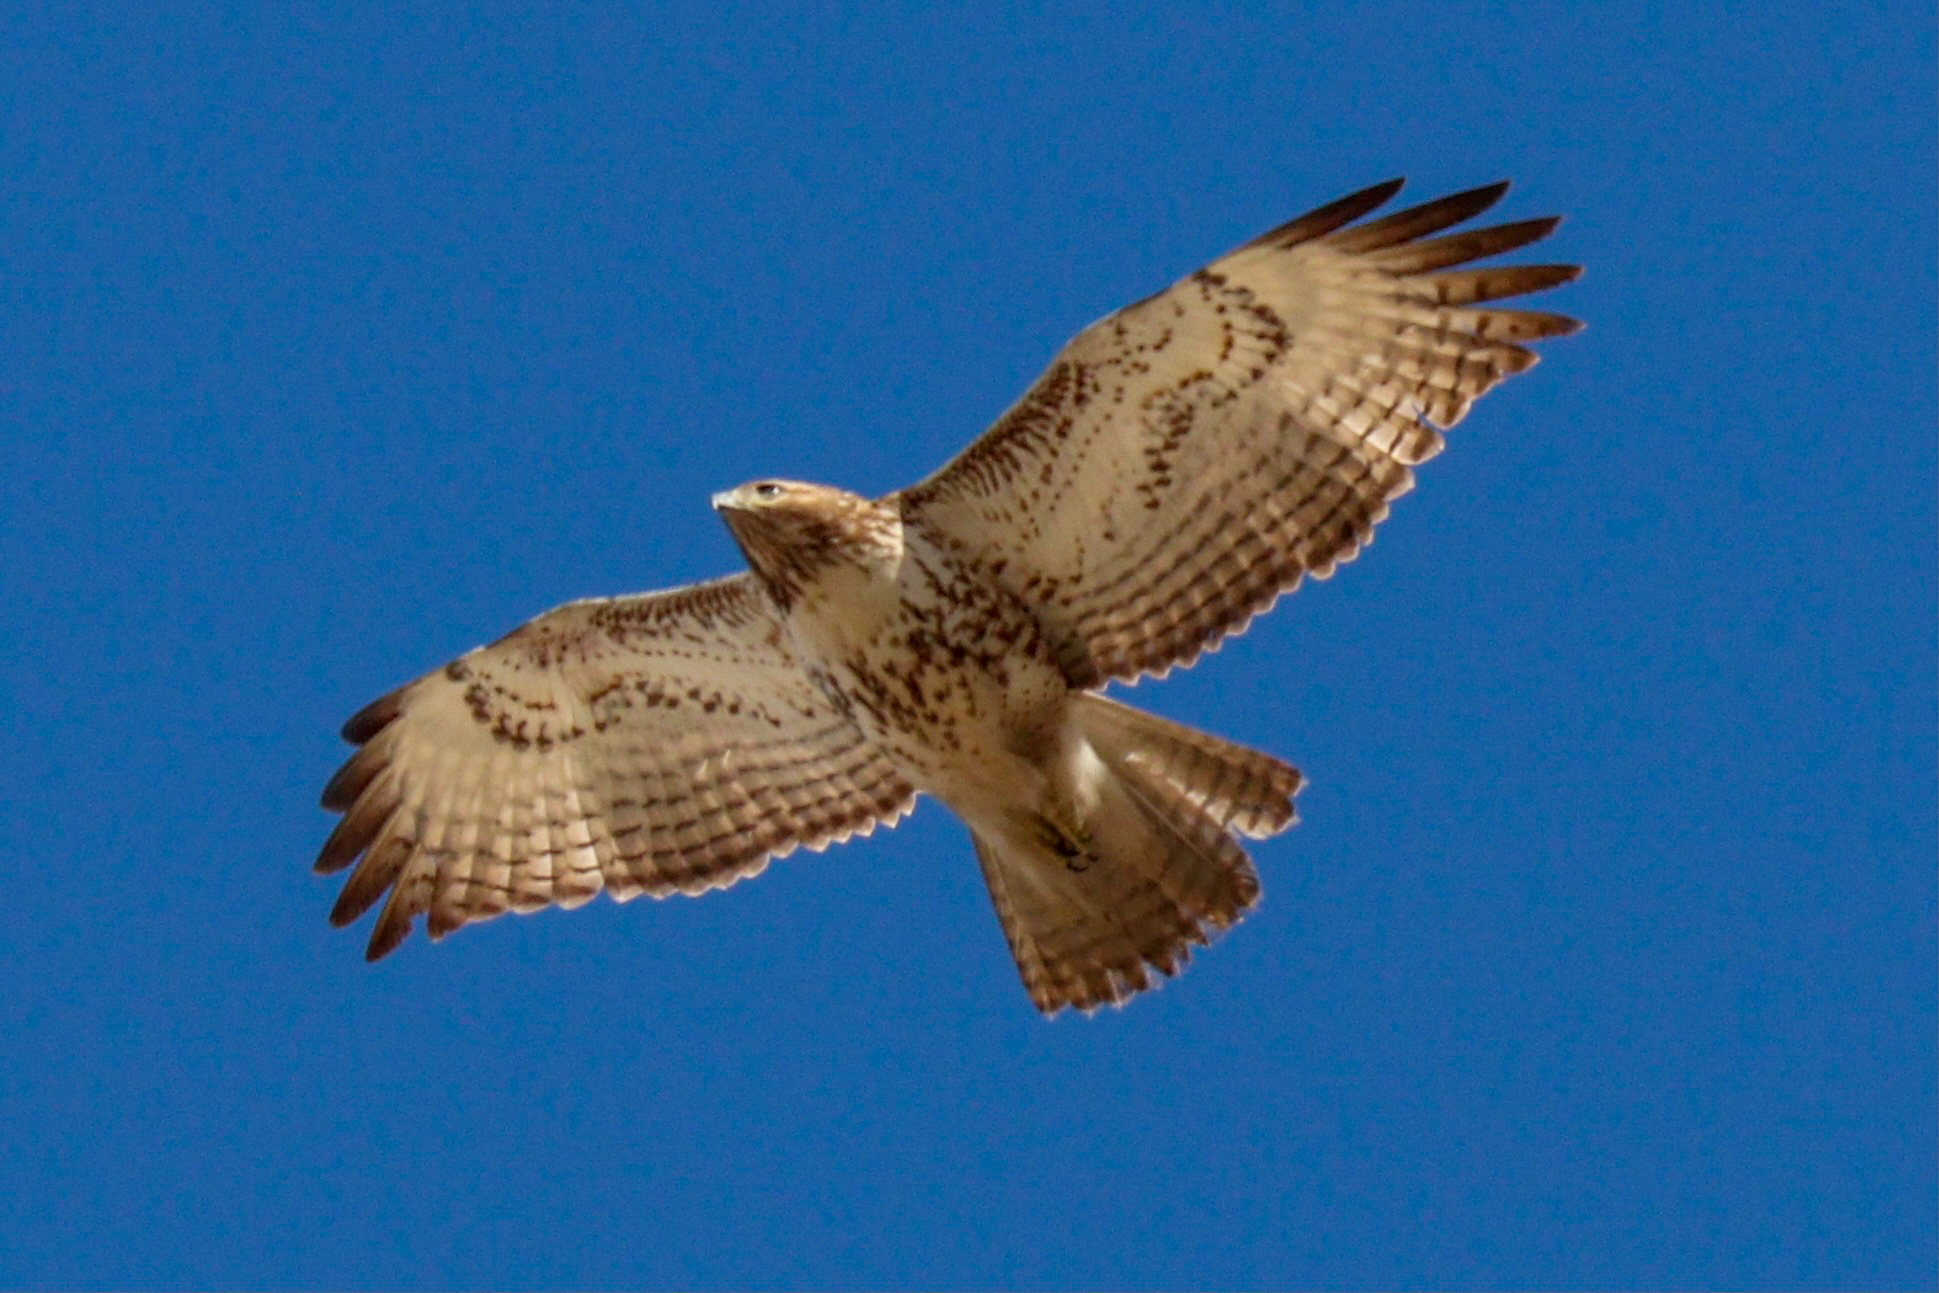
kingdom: Animalia
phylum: Chordata
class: Aves
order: Accipitriformes
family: Accipitridae
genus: Buteo
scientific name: Buteo jamaicensis
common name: Red-tailed hawk
